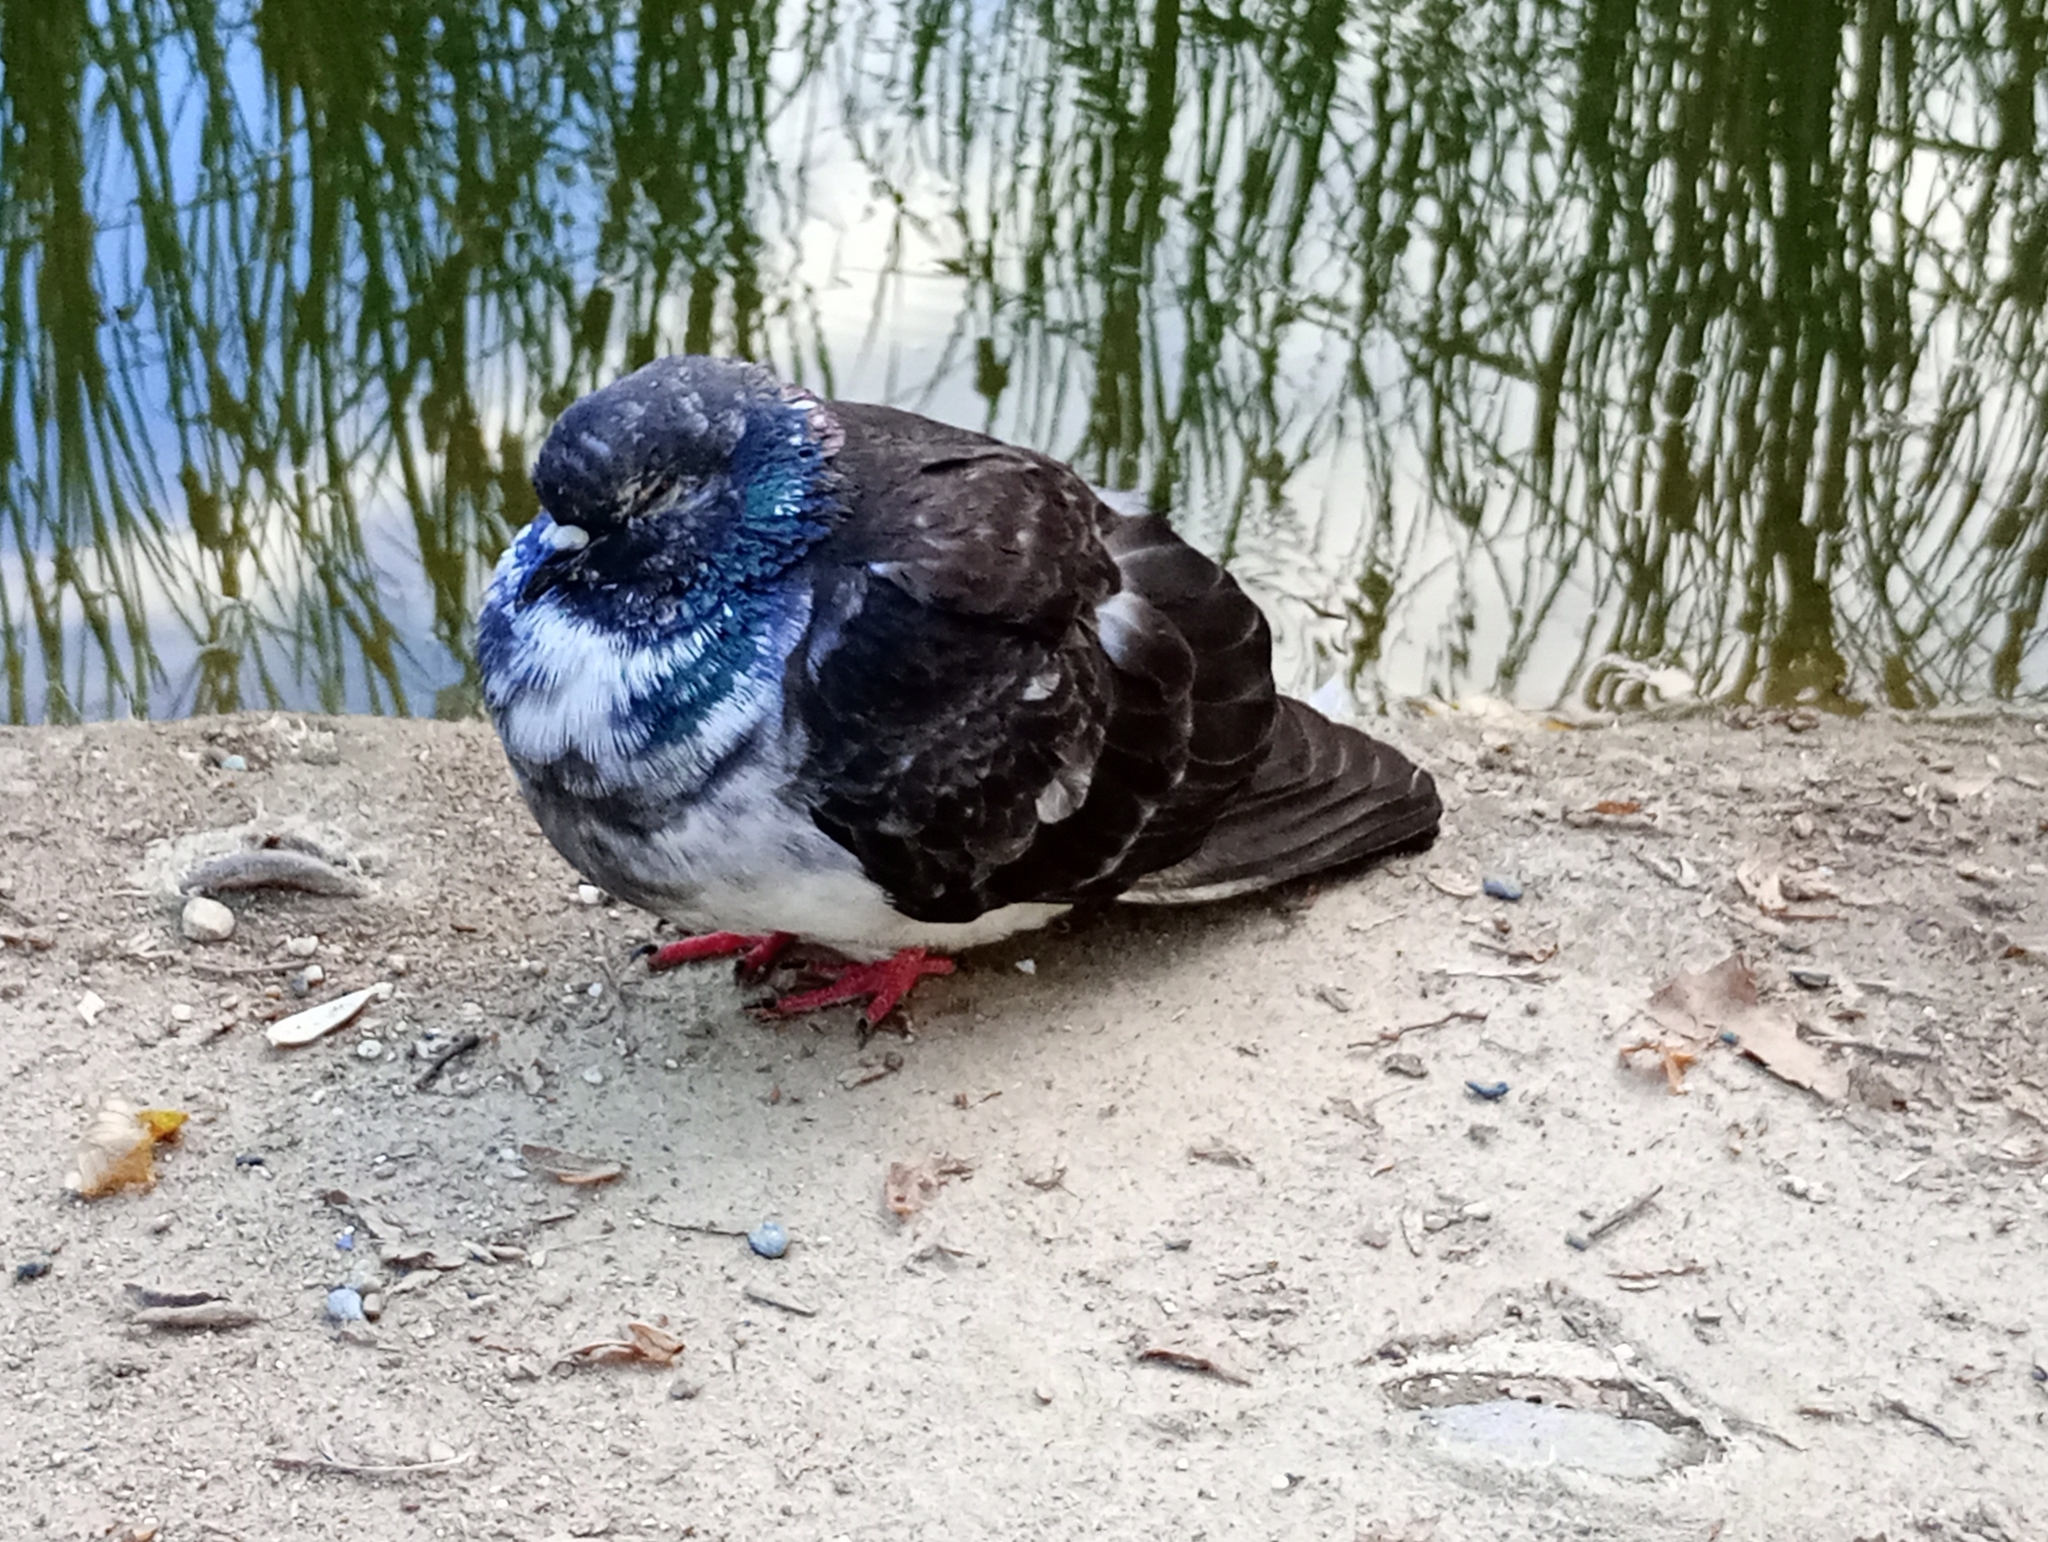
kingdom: Animalia
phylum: Chordata
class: Aves
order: Columbiformes
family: Columbidae
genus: Columba
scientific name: Columba livia
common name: Rock pigeon
